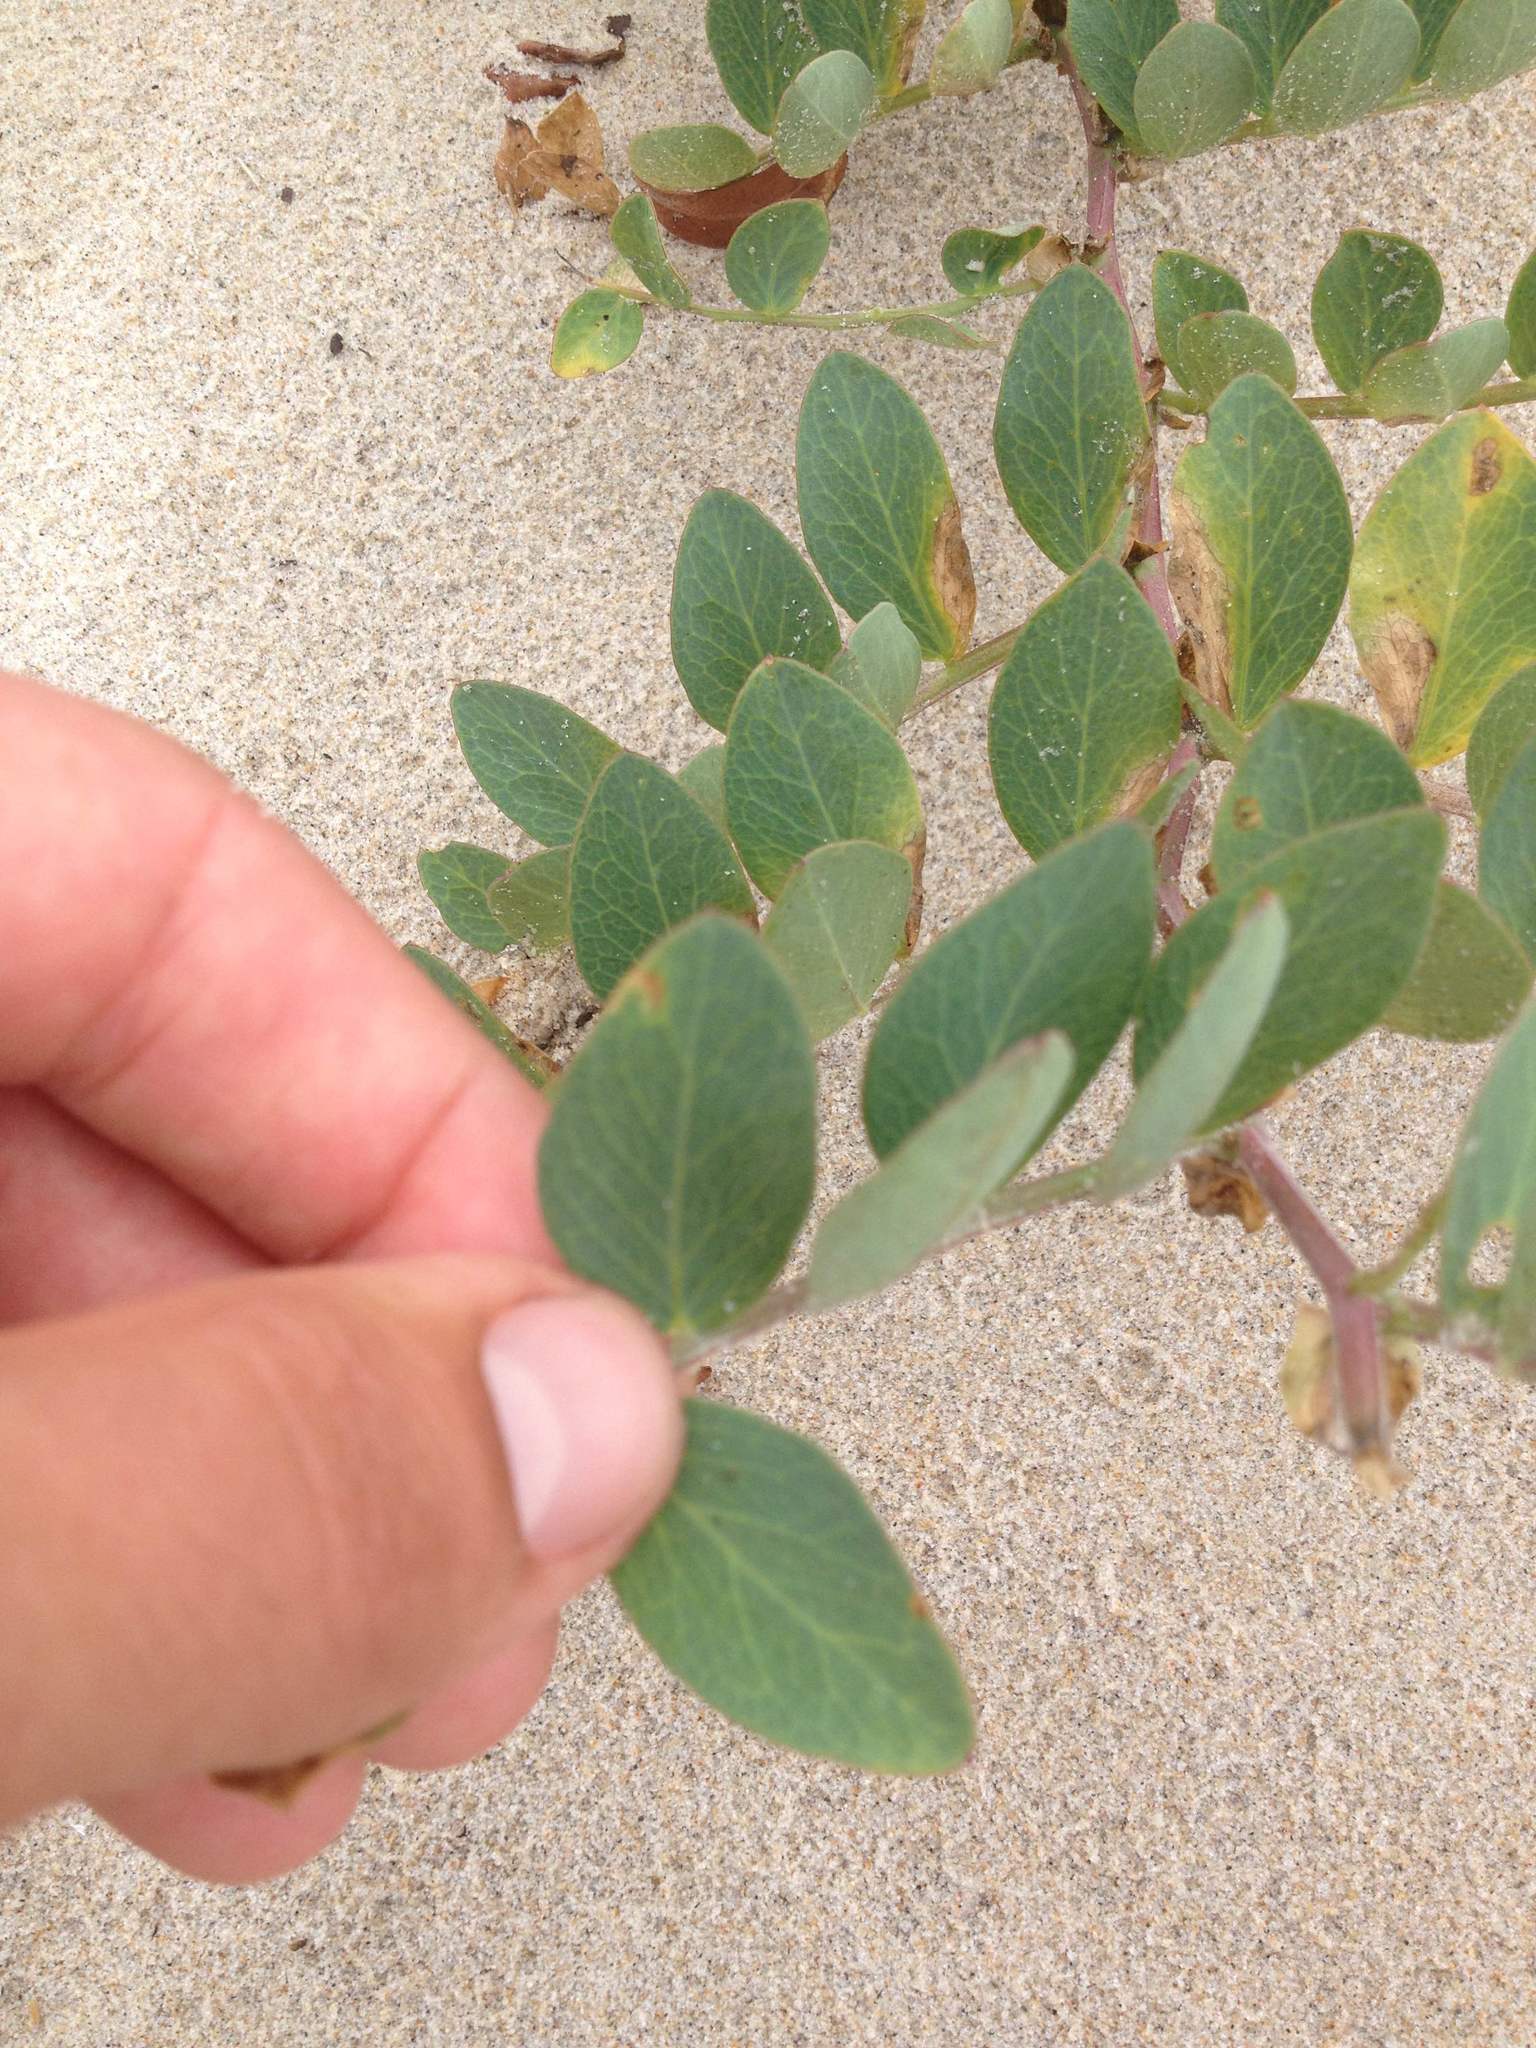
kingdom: Plantae
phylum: Tracheophyta
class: Magnoliopsida
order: Fabales
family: Fabaceae
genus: Lathyrus
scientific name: Lathyrus japonicus
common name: Sea pea
